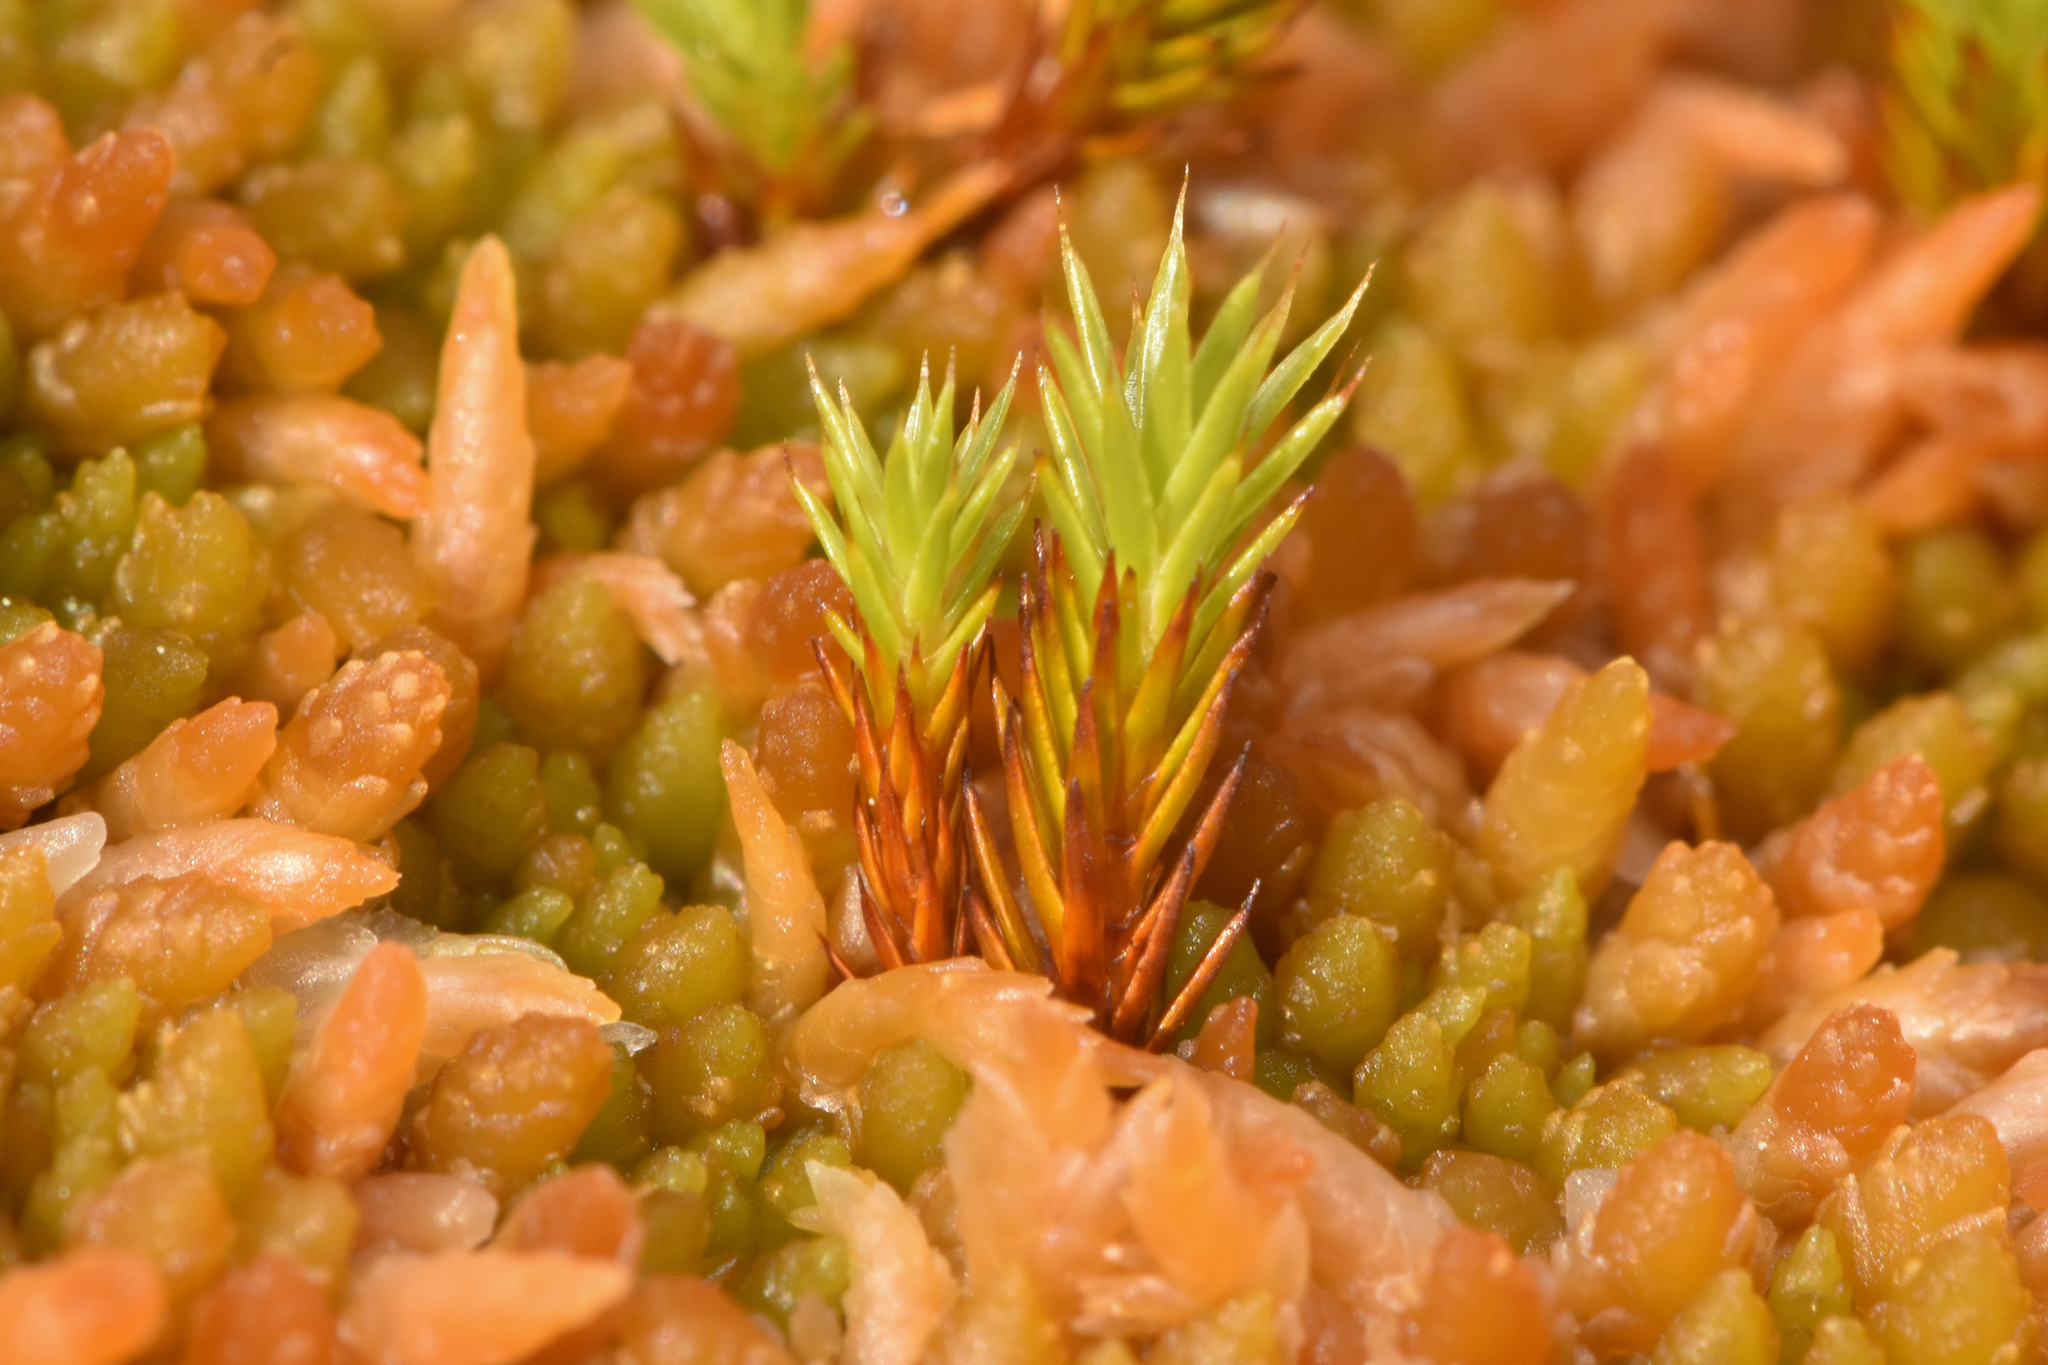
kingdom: Plantae
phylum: Bryophyta
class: Polytrichopsida
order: Polytrichales
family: Polytrichaceae
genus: Polytrichum
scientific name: Polytrichum strictum
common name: Bog haircap moss
